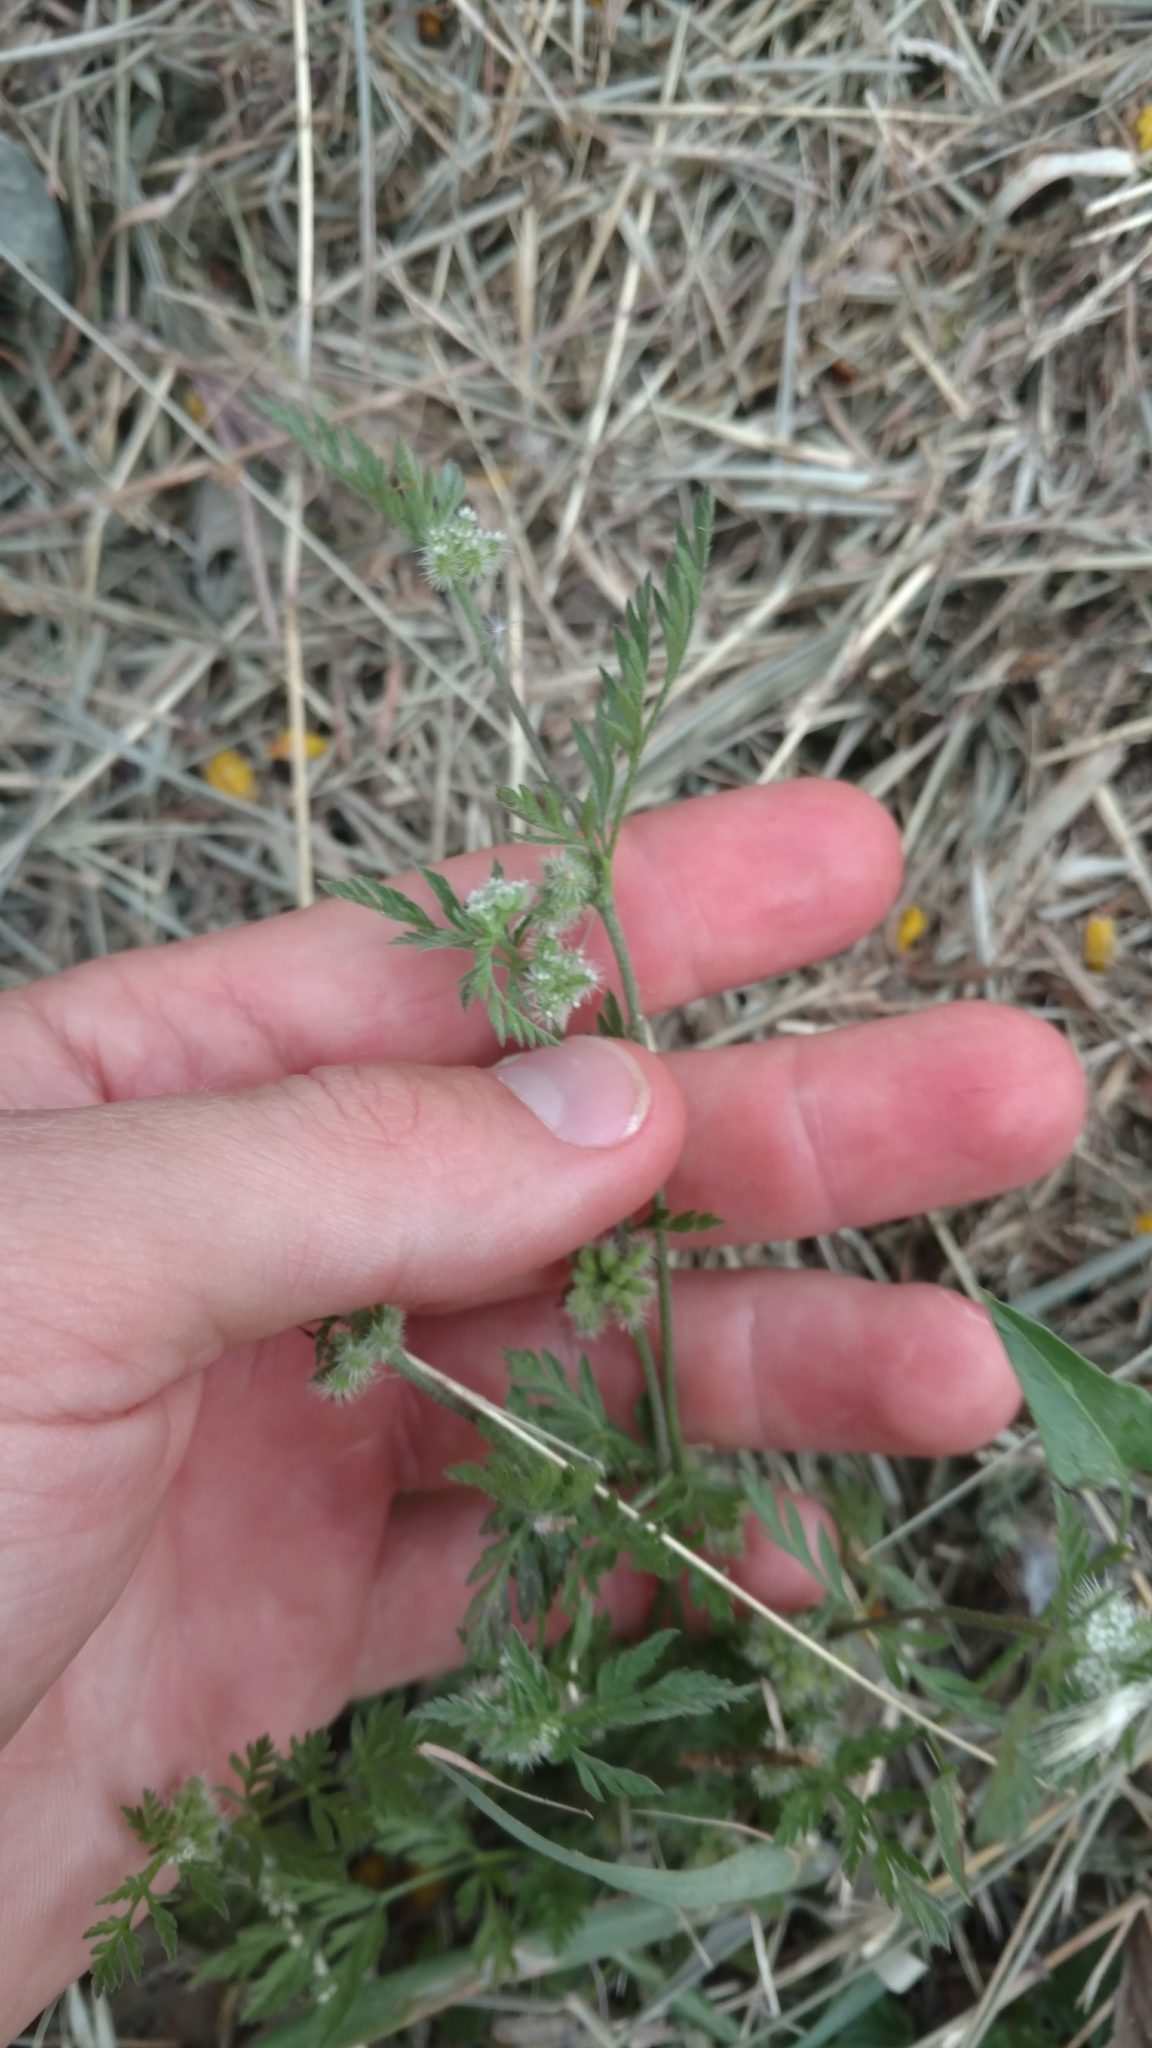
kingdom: Plantae
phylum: Tracheophyta
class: Magnoliopsida
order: Apiales
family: Apiaceae
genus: Torilis
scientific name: Torilis nodosa
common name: Knotted hedge-parsley
